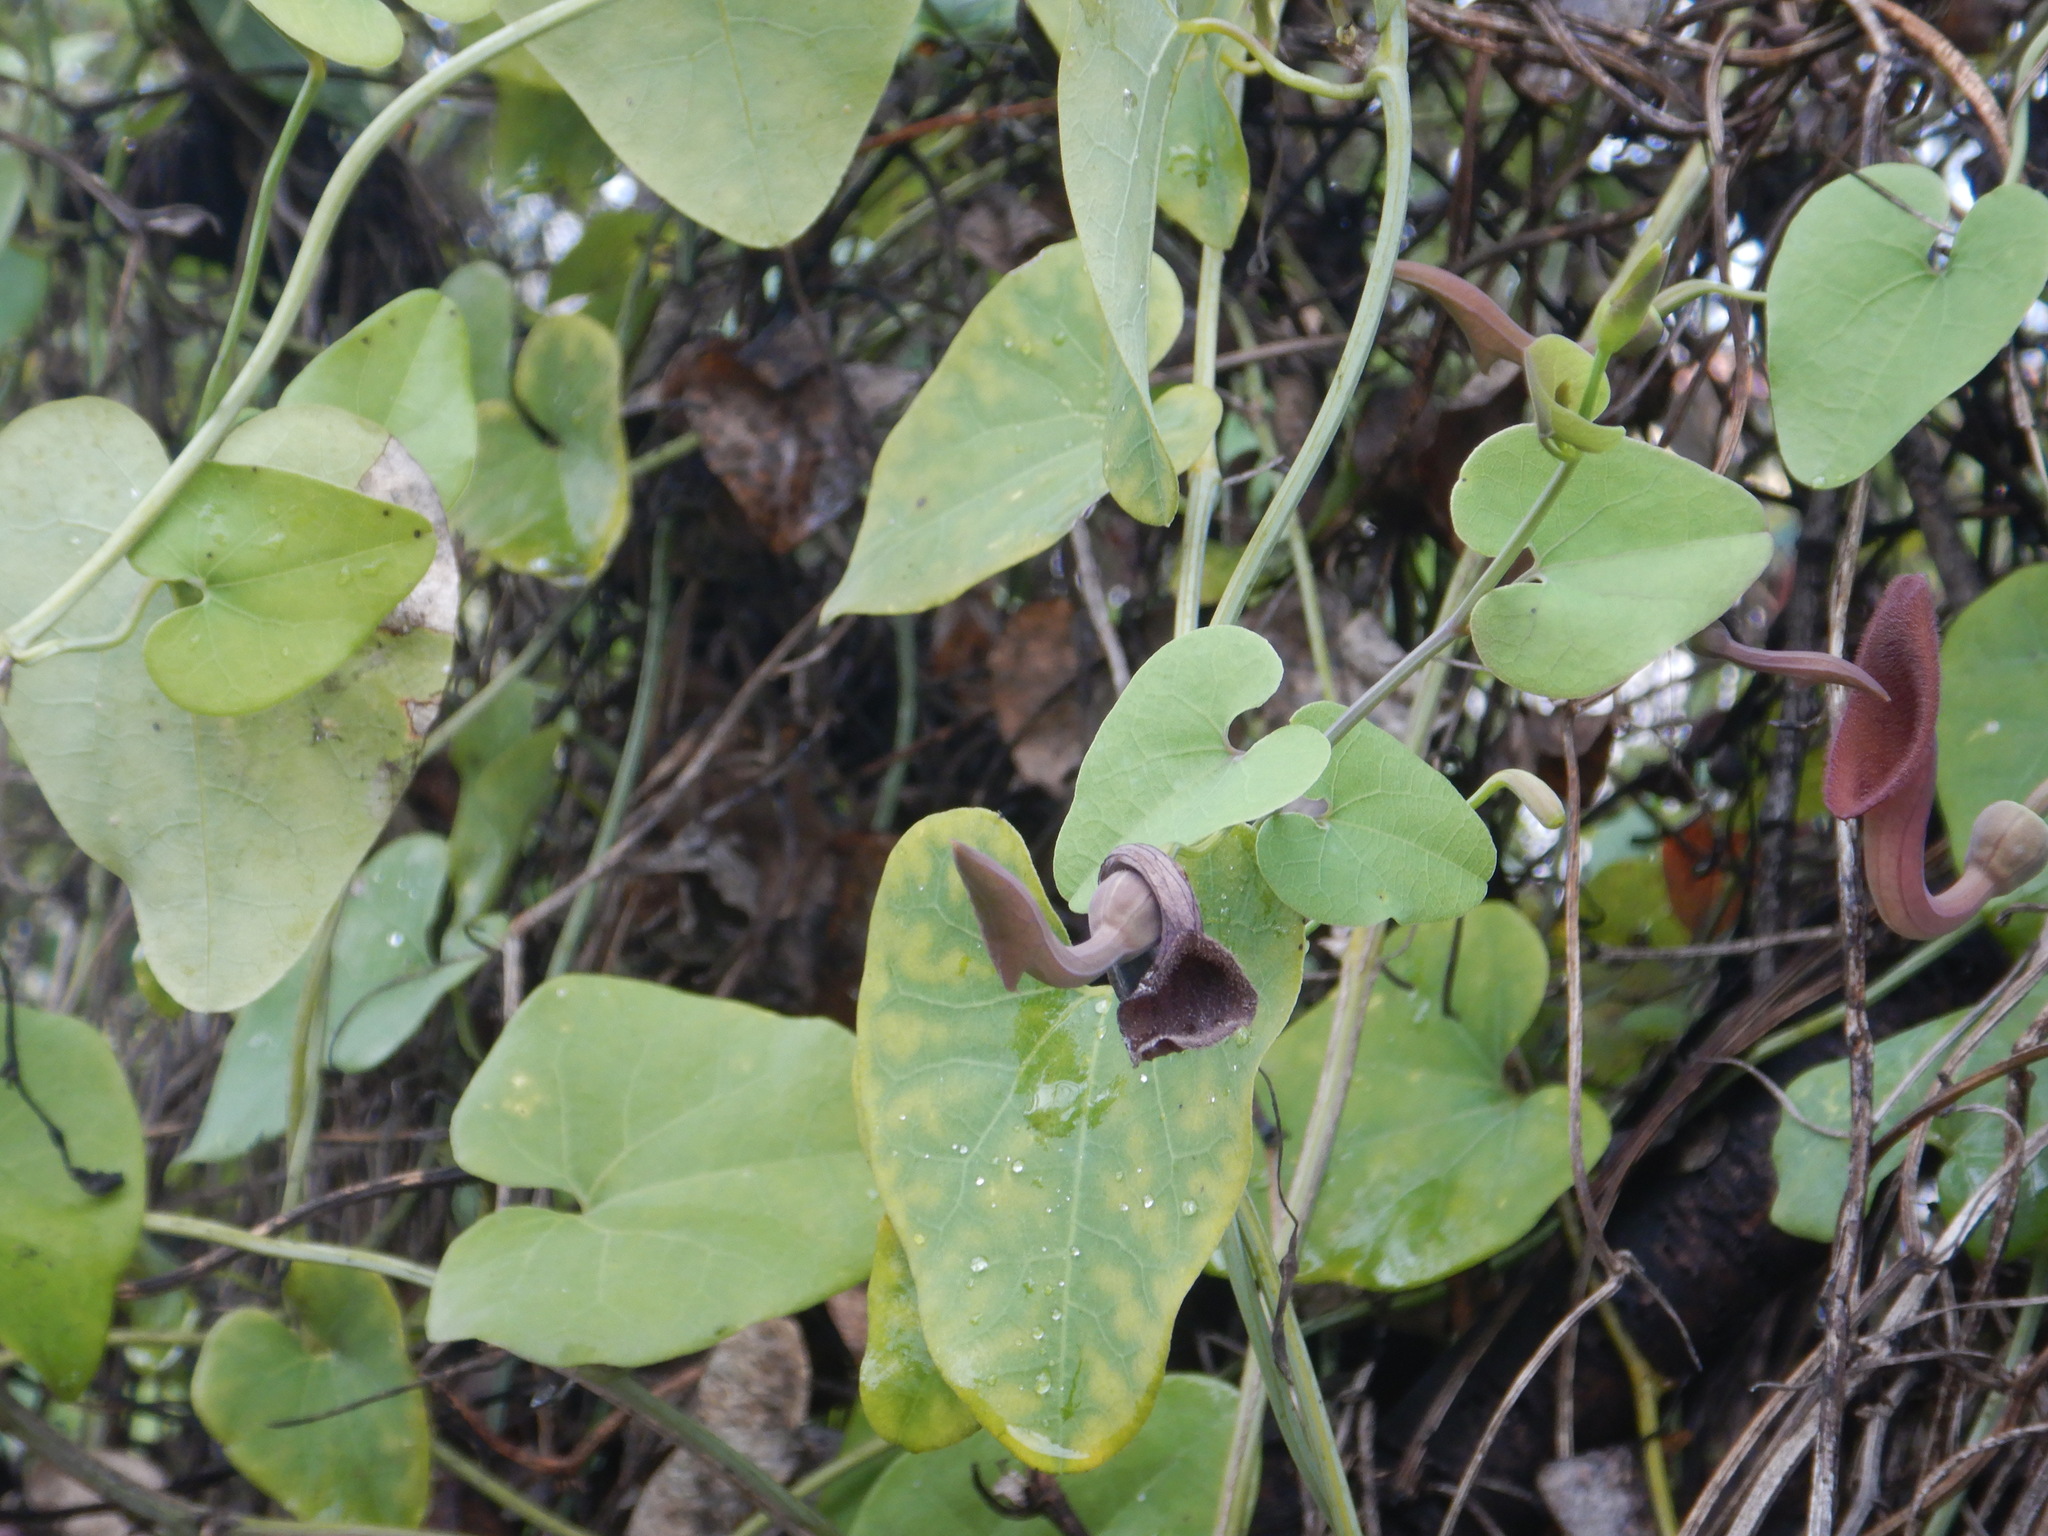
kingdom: Plantae
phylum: Tracheophyta
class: Magnoliopsida
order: Piperales
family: Aristolochiaceae
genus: Aristolochia
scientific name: Aristolochia baetica
